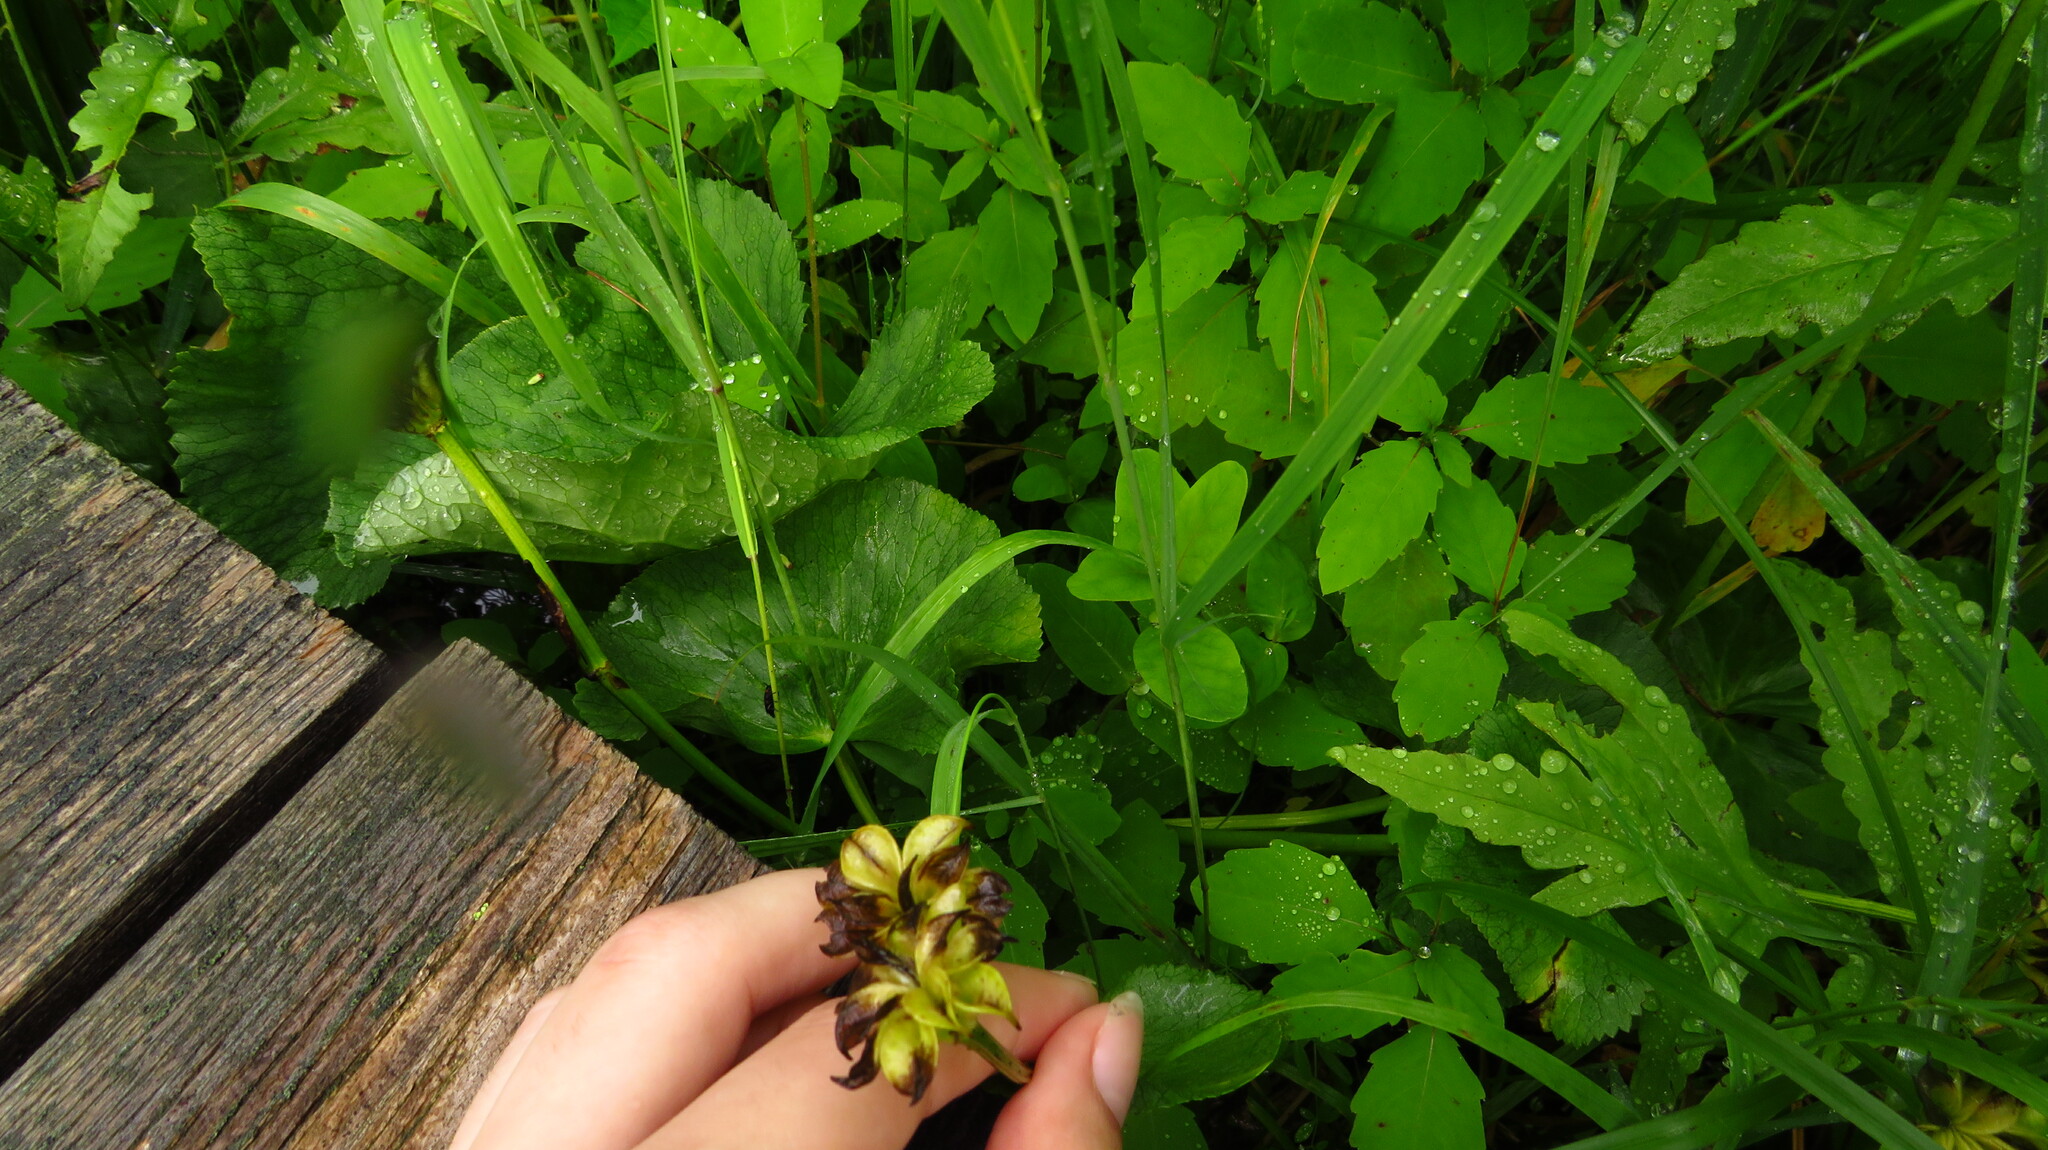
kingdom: Plantae
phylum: Tracheophyta
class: Magnoliopsida
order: Ranunculales
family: Ranunculaceae
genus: Caltha
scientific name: Caltha palustris
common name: Marsh marigold
